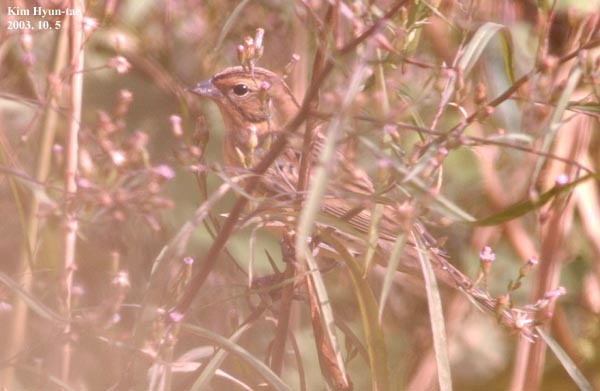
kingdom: Animalia
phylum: Chordata
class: Aves
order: Passeriformes
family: Emberizidae
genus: Emberiza
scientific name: Emberiza rutila
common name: Chestnut bunting
